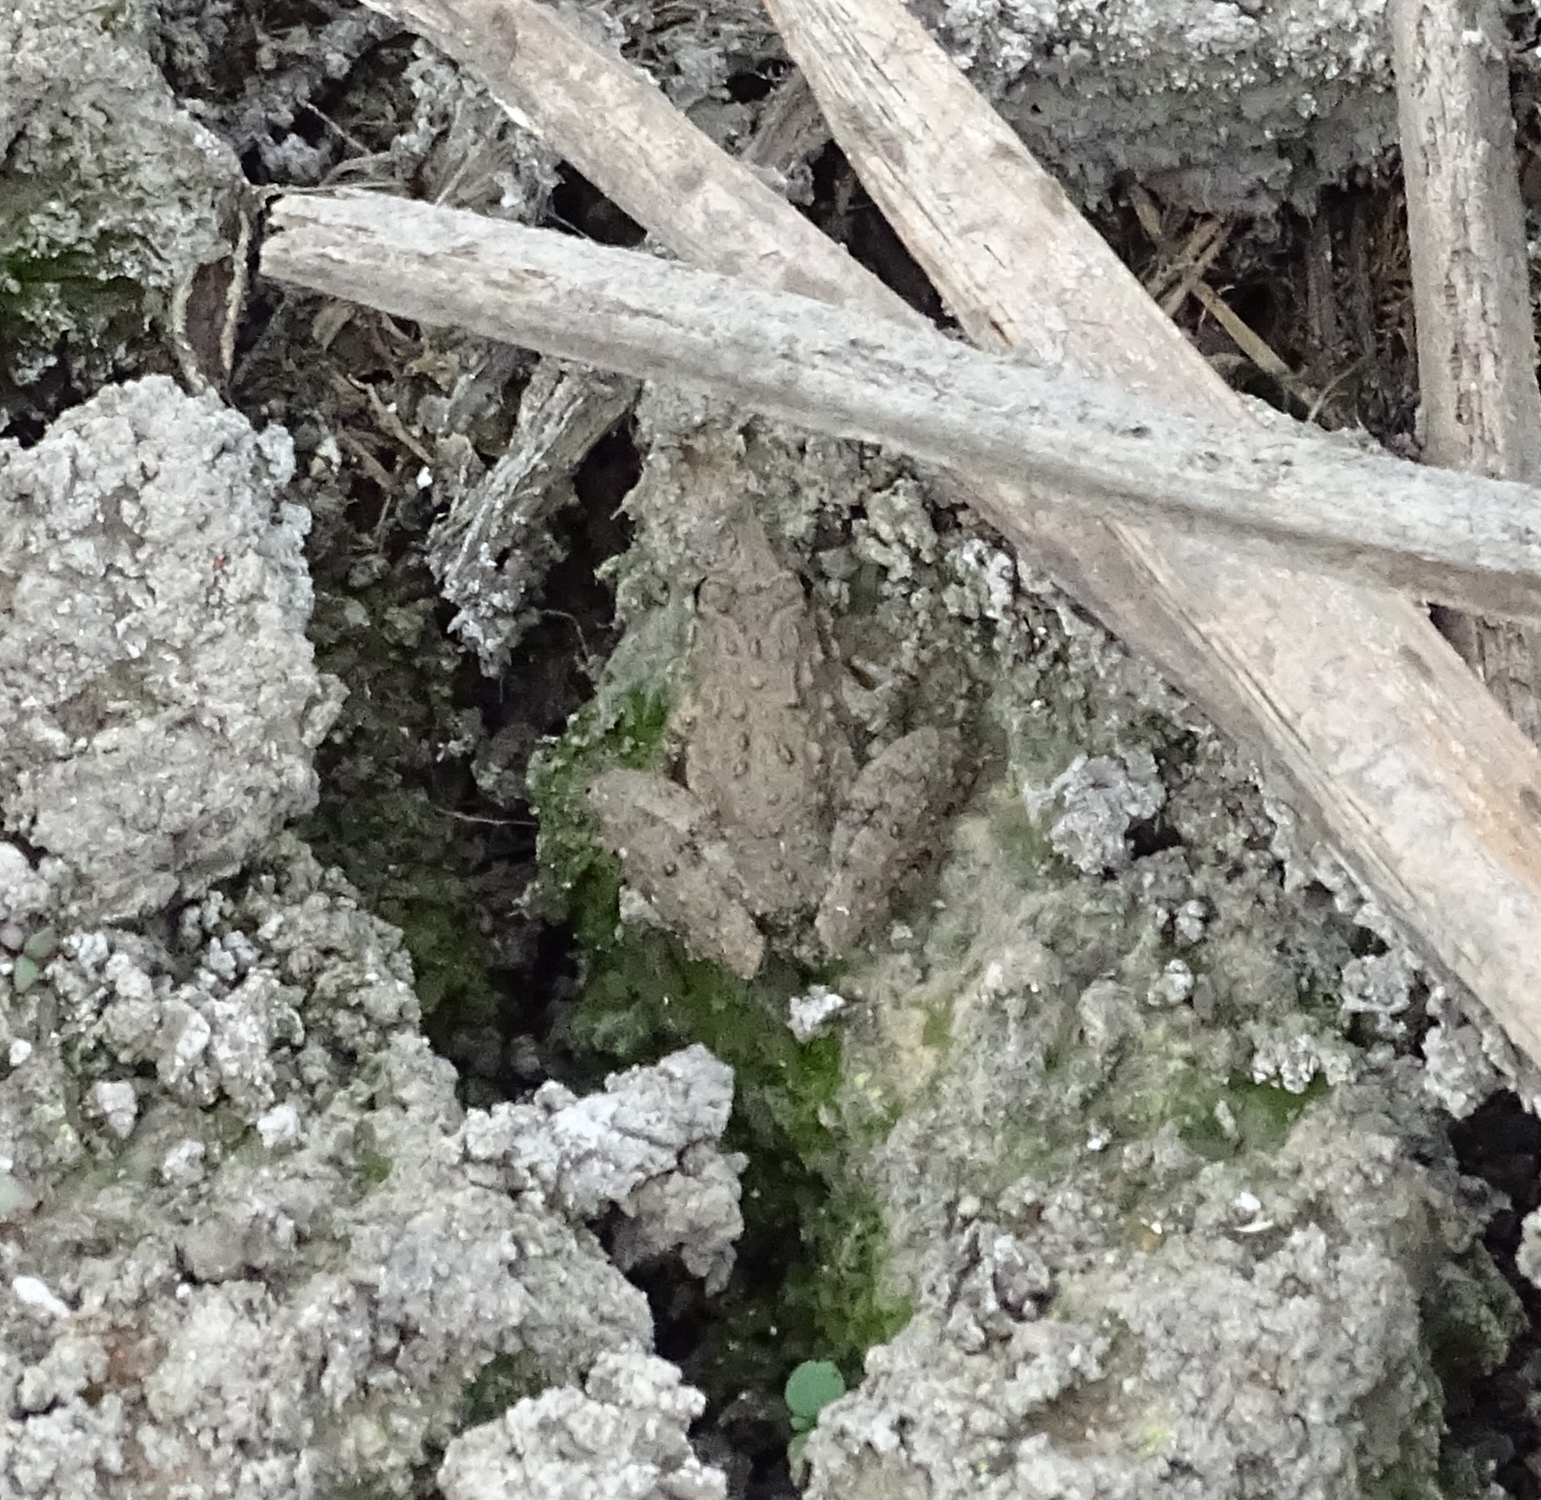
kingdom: Animalia
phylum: Chordata
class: Amphibia
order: Anura
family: Hylidae
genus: Acris
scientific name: Acris blanchardi
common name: Blanchard's cricket frog
